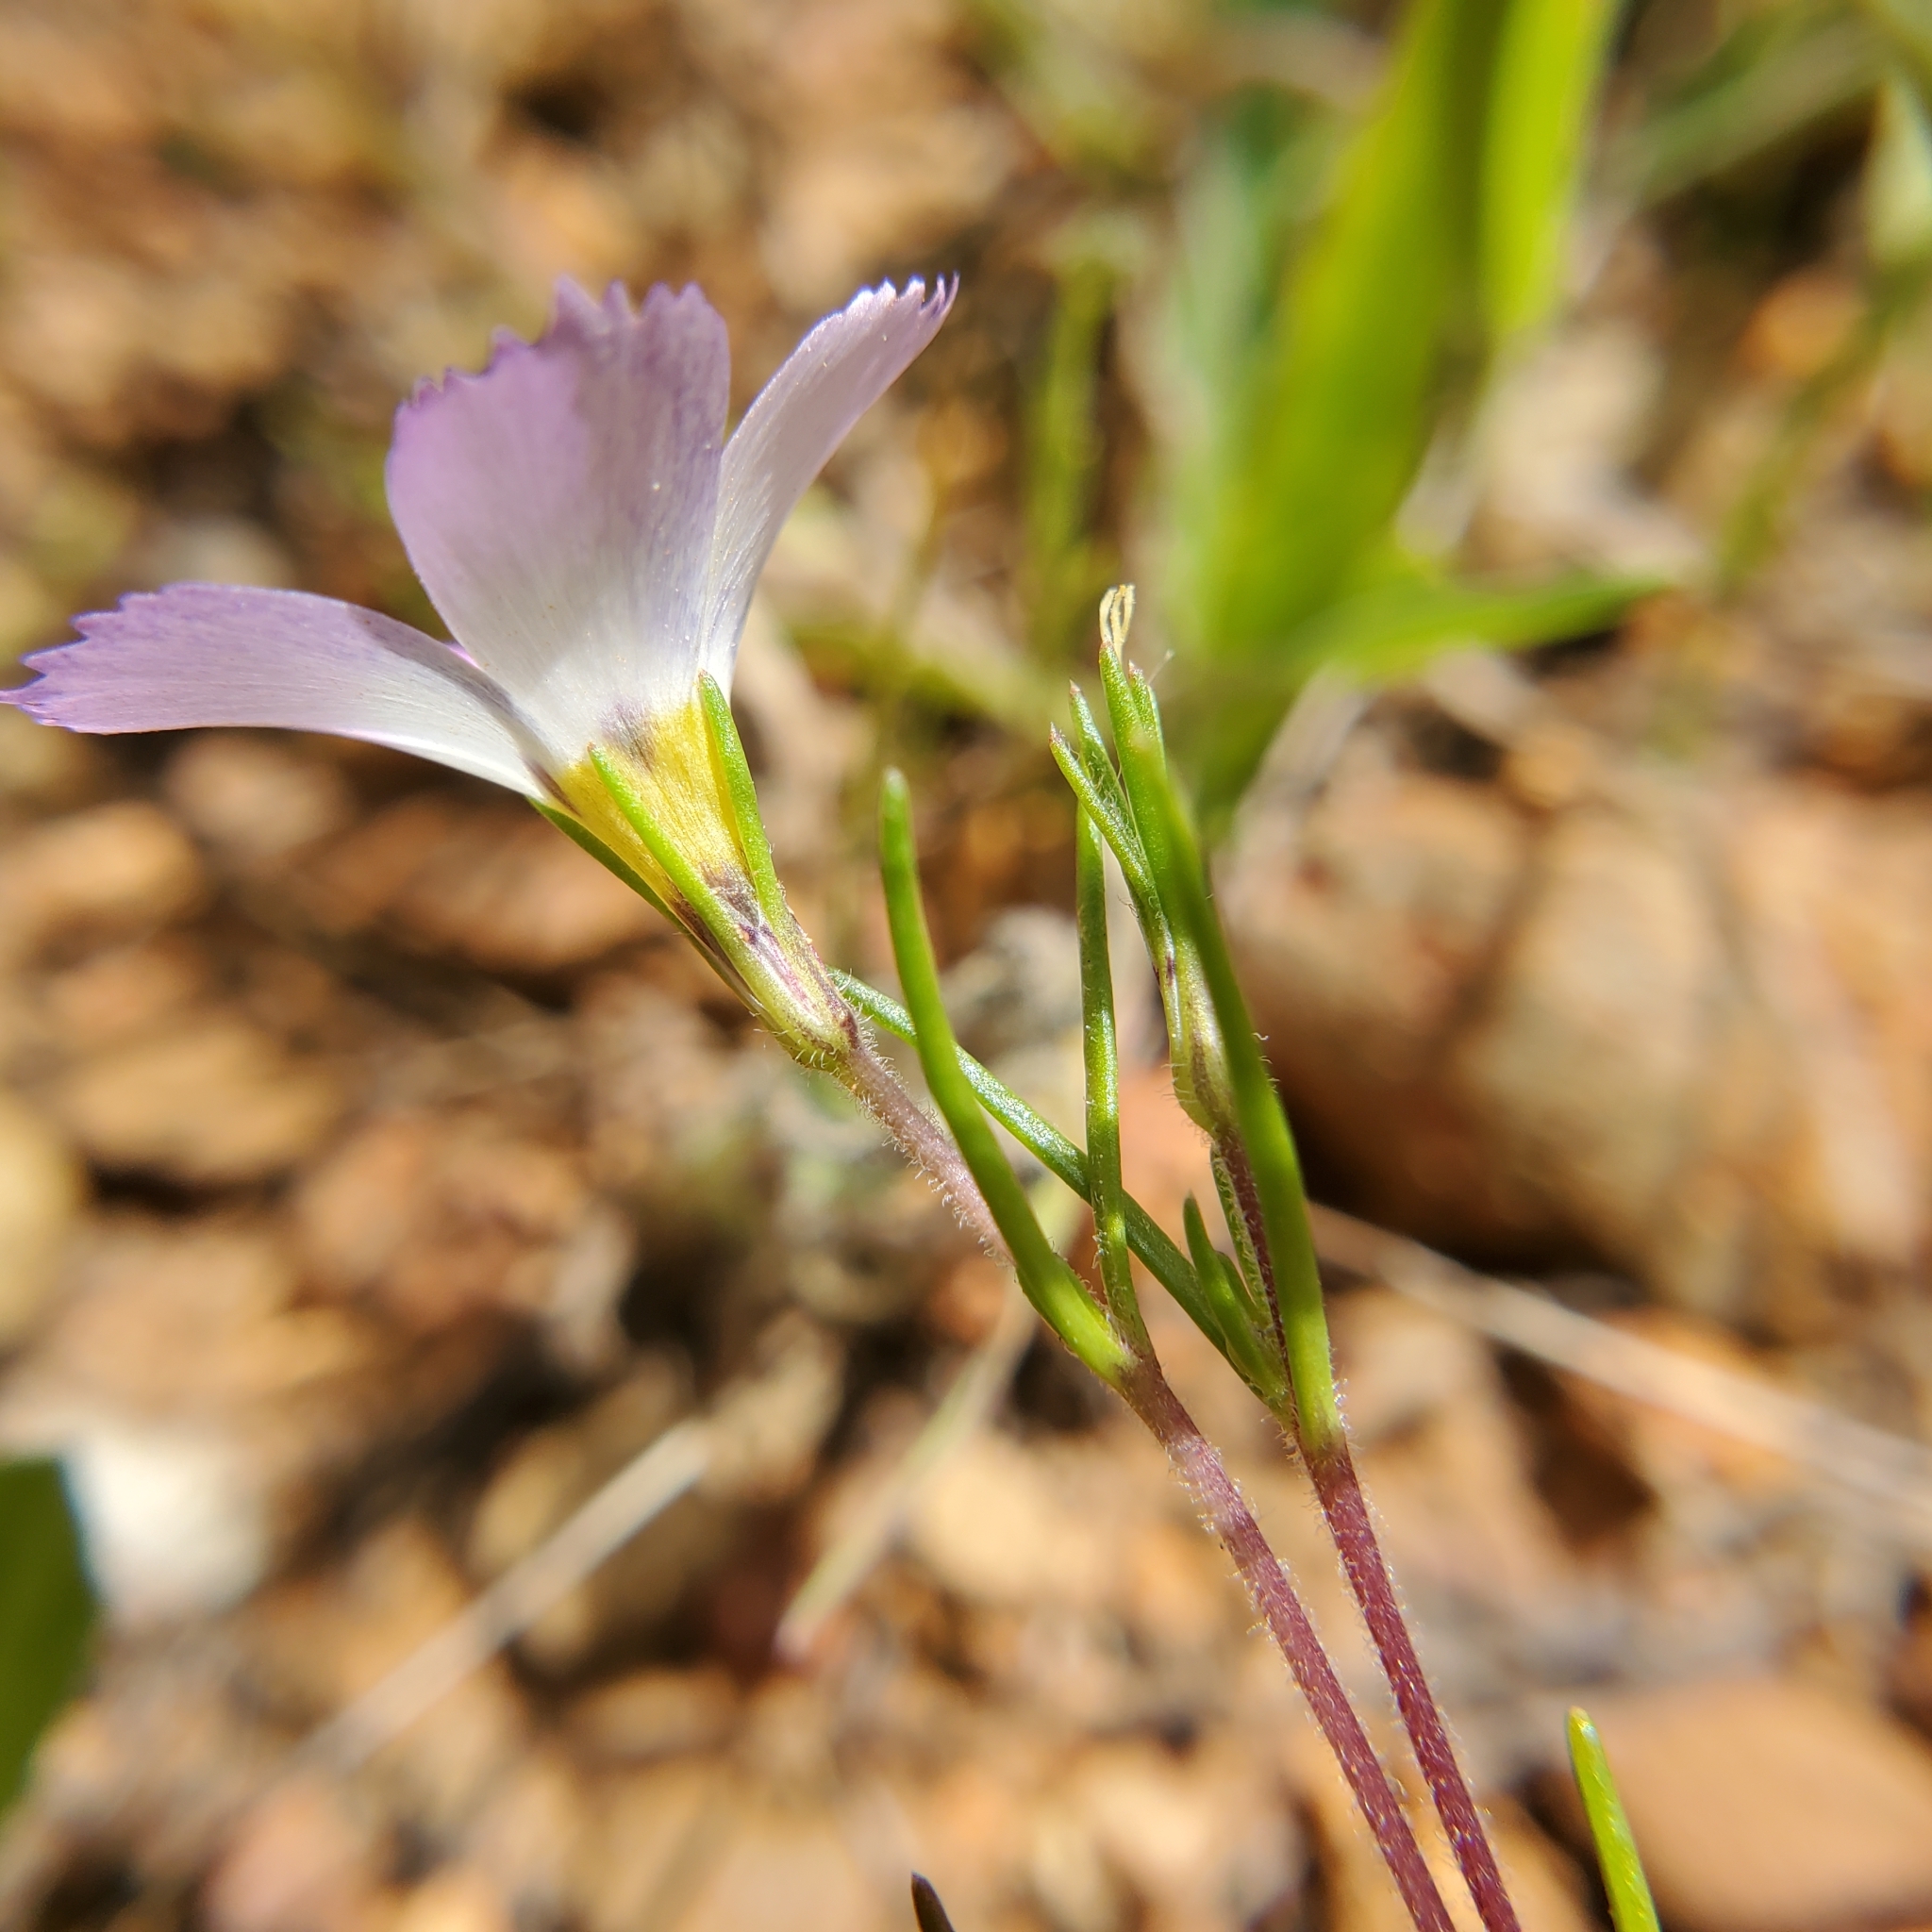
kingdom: Plantae
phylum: Tracheophyta
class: Magnoliopsida
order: Ericales
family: Polemoniaceae
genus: Linanthus
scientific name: Linanthus dianthiflorus
